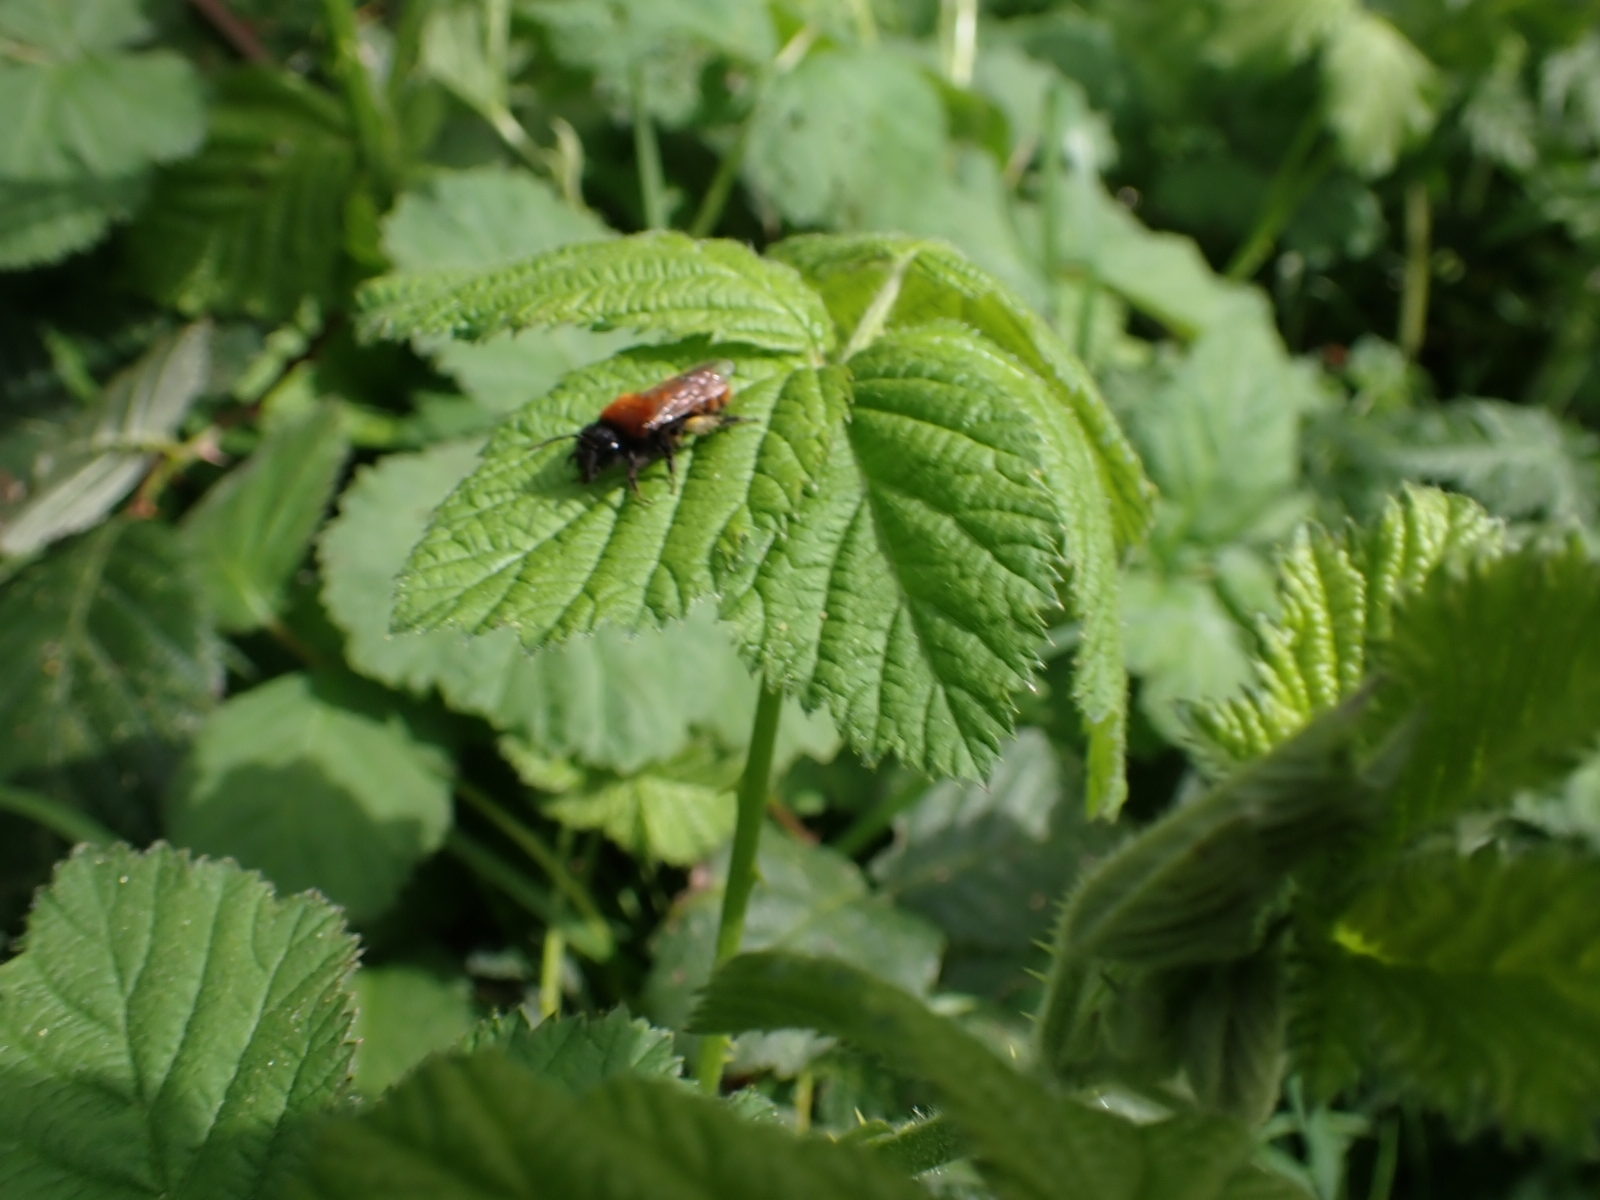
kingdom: Animalia
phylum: Arthropoda
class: Insecta
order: Hymenoptera
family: Andrenidae
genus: Andrena
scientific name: Andrena fulva
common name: Tawny mining bee
